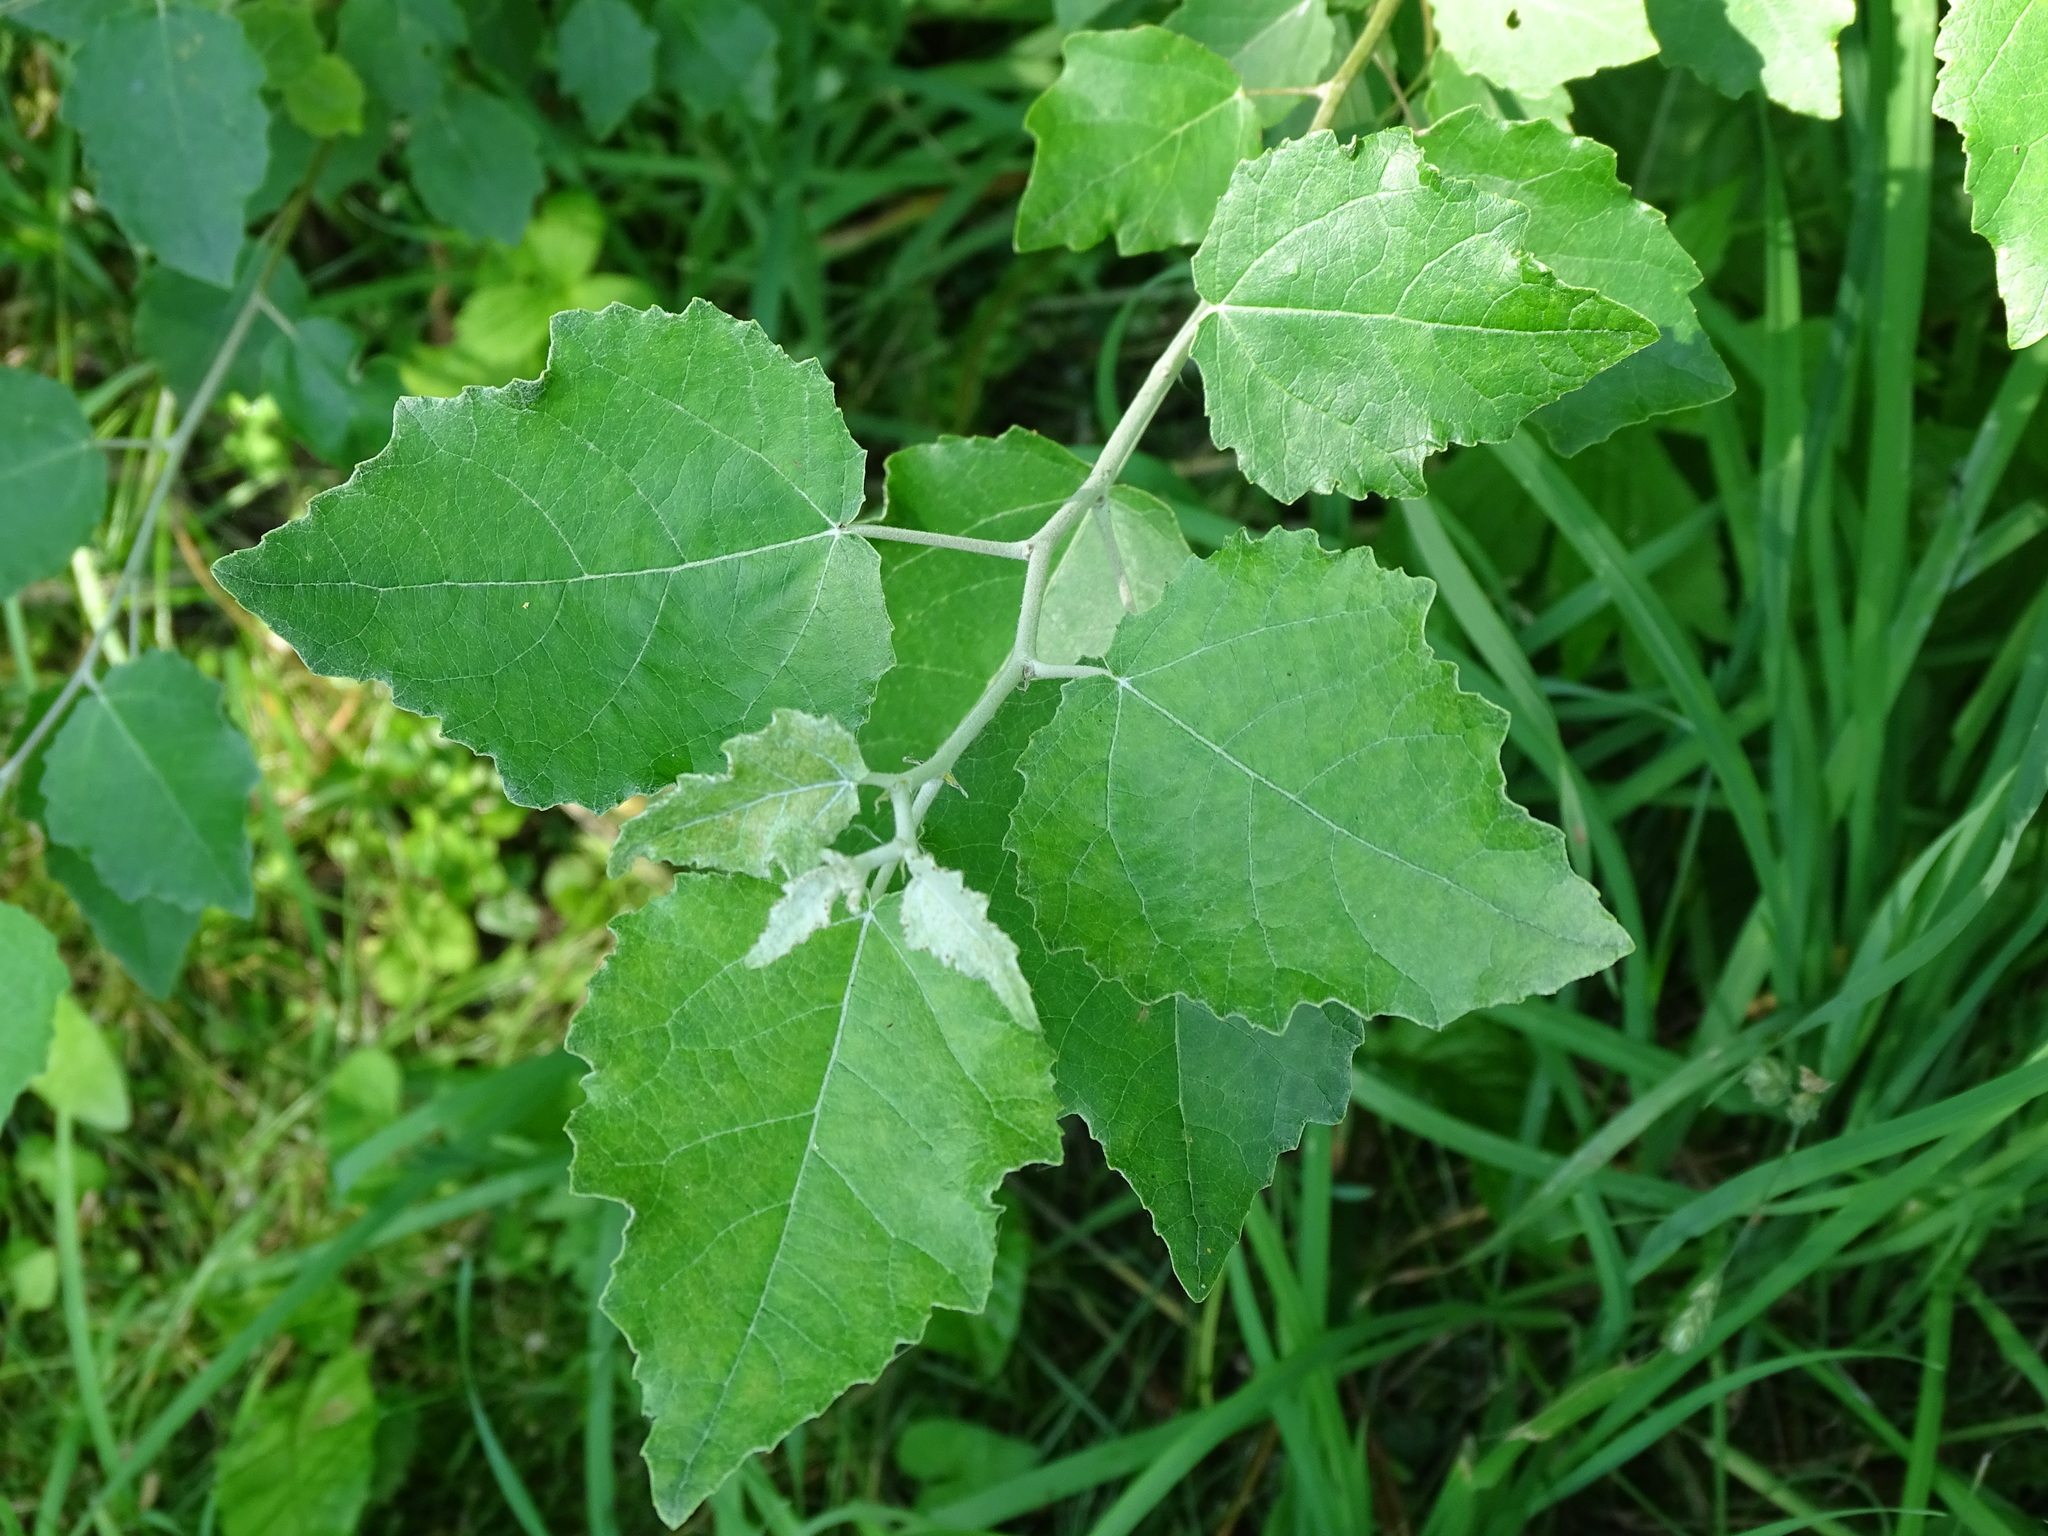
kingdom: Plantae
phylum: Tracheophyta
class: Magnoliopsida
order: Malpighiales
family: Salicaceae
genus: Populus
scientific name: Populus alba
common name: White poplar
